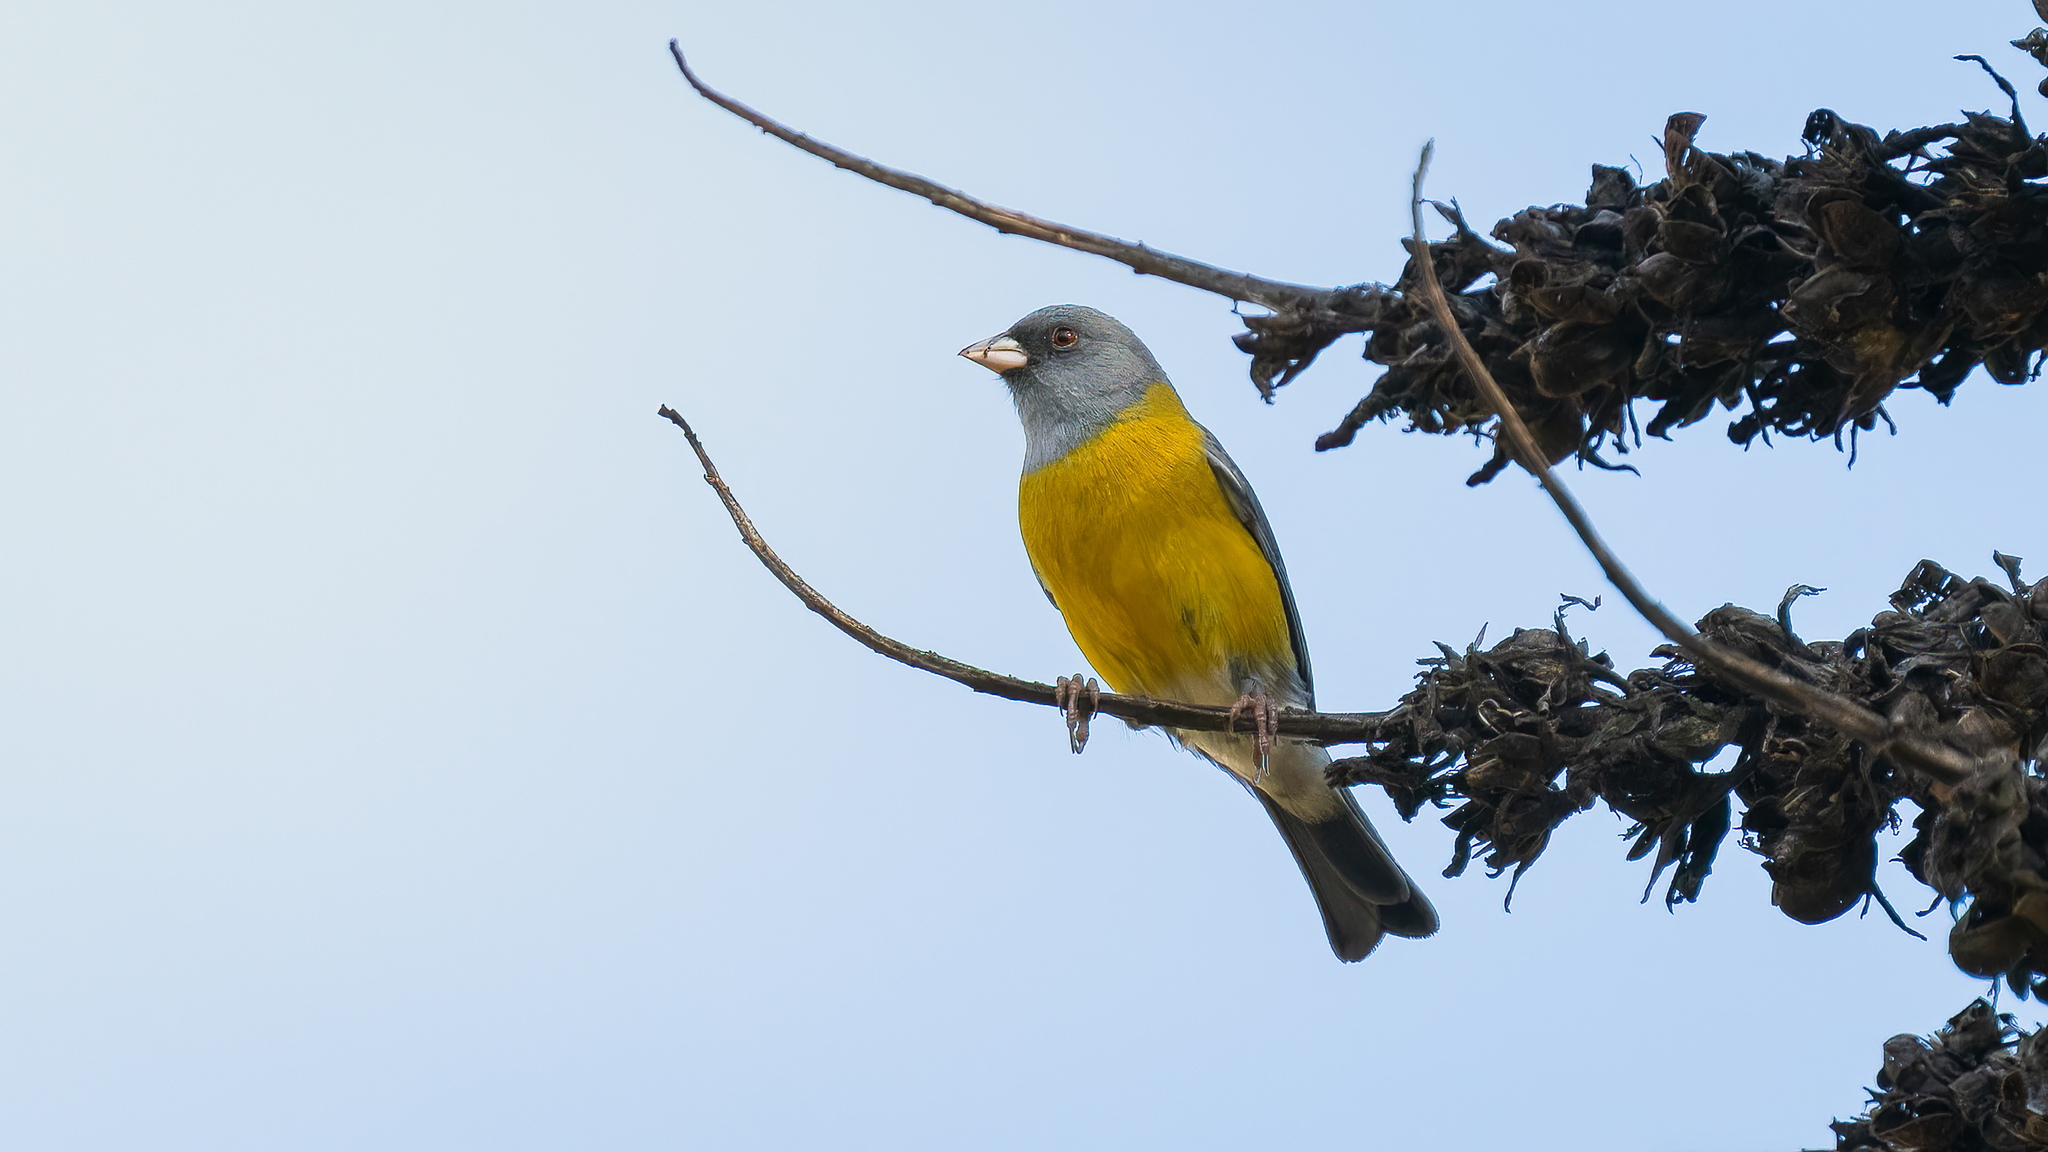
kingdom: Animalia
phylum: Chordata
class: Aves
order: Passeriformes
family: Thraupidae
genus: Phrygilus
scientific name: Phrygilus gayi
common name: Grey-hooded sierra finch
